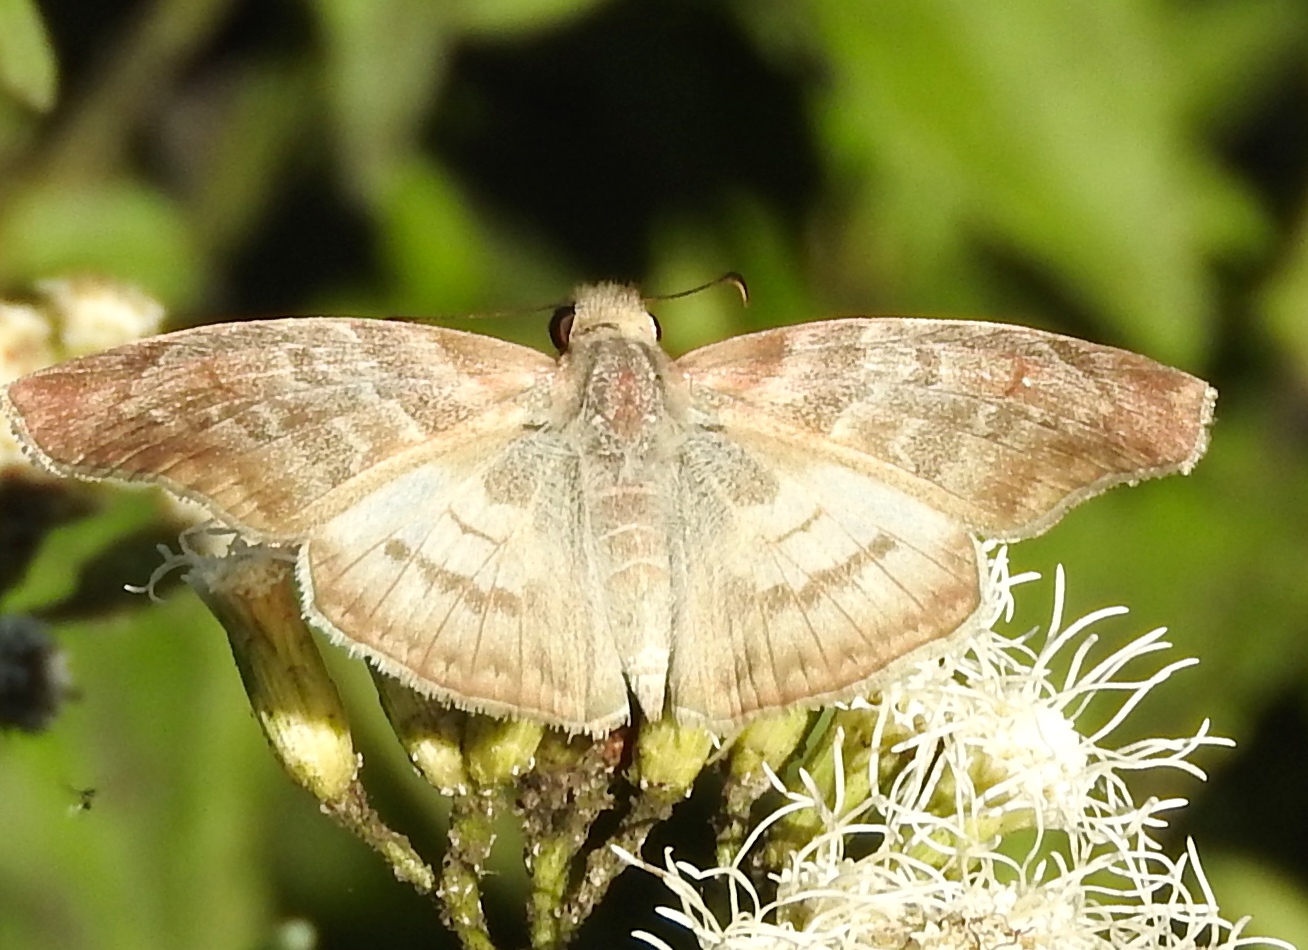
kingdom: Animalia
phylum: Arthropoda
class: Insecta
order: Lepidoptera
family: Hesperiidae
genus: Mylon
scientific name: Mylon pelopidas
